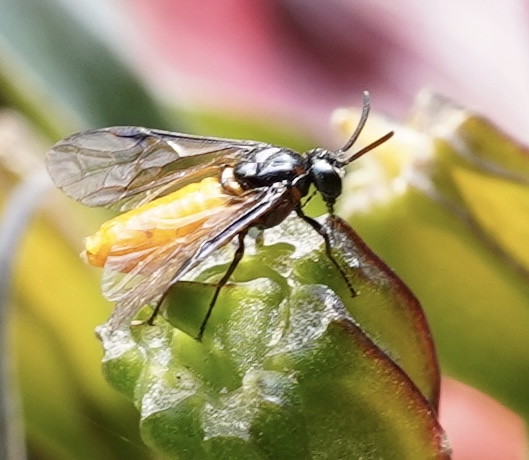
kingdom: Animalia
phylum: Arthropoda
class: Insecta
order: Hymenoptera
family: Argidae
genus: Arge
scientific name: Arge pagana
